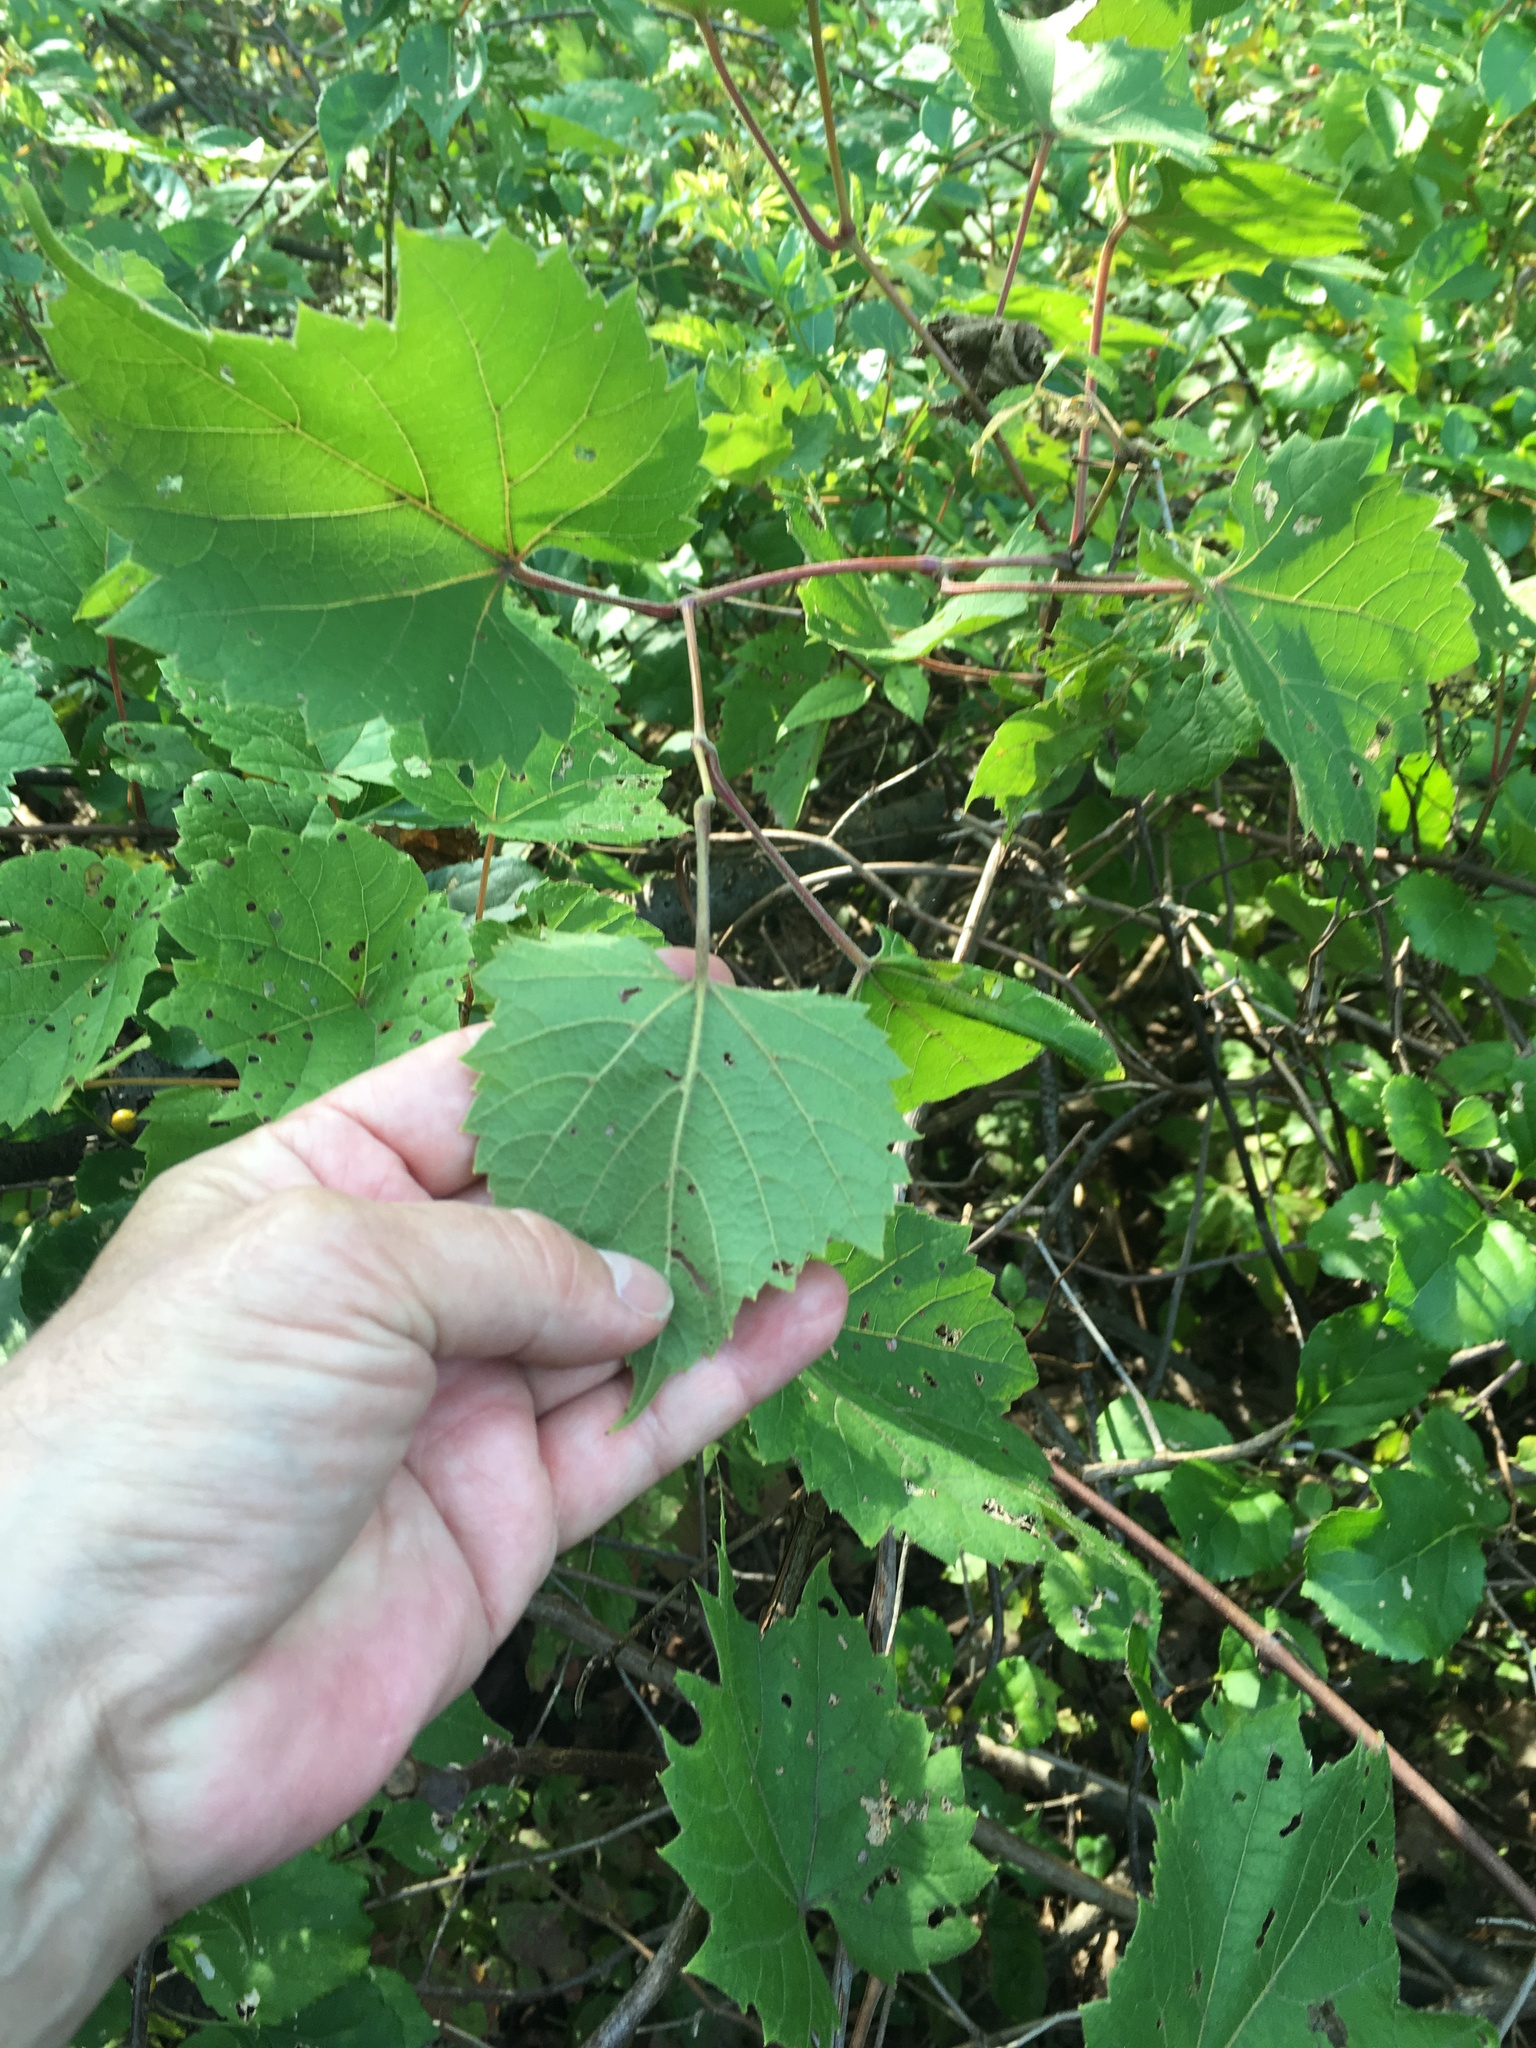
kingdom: Plantae
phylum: Tracheophyta
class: Magnoliopsida
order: Vitales
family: Vitaceae
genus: Vitis
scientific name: Vitis
